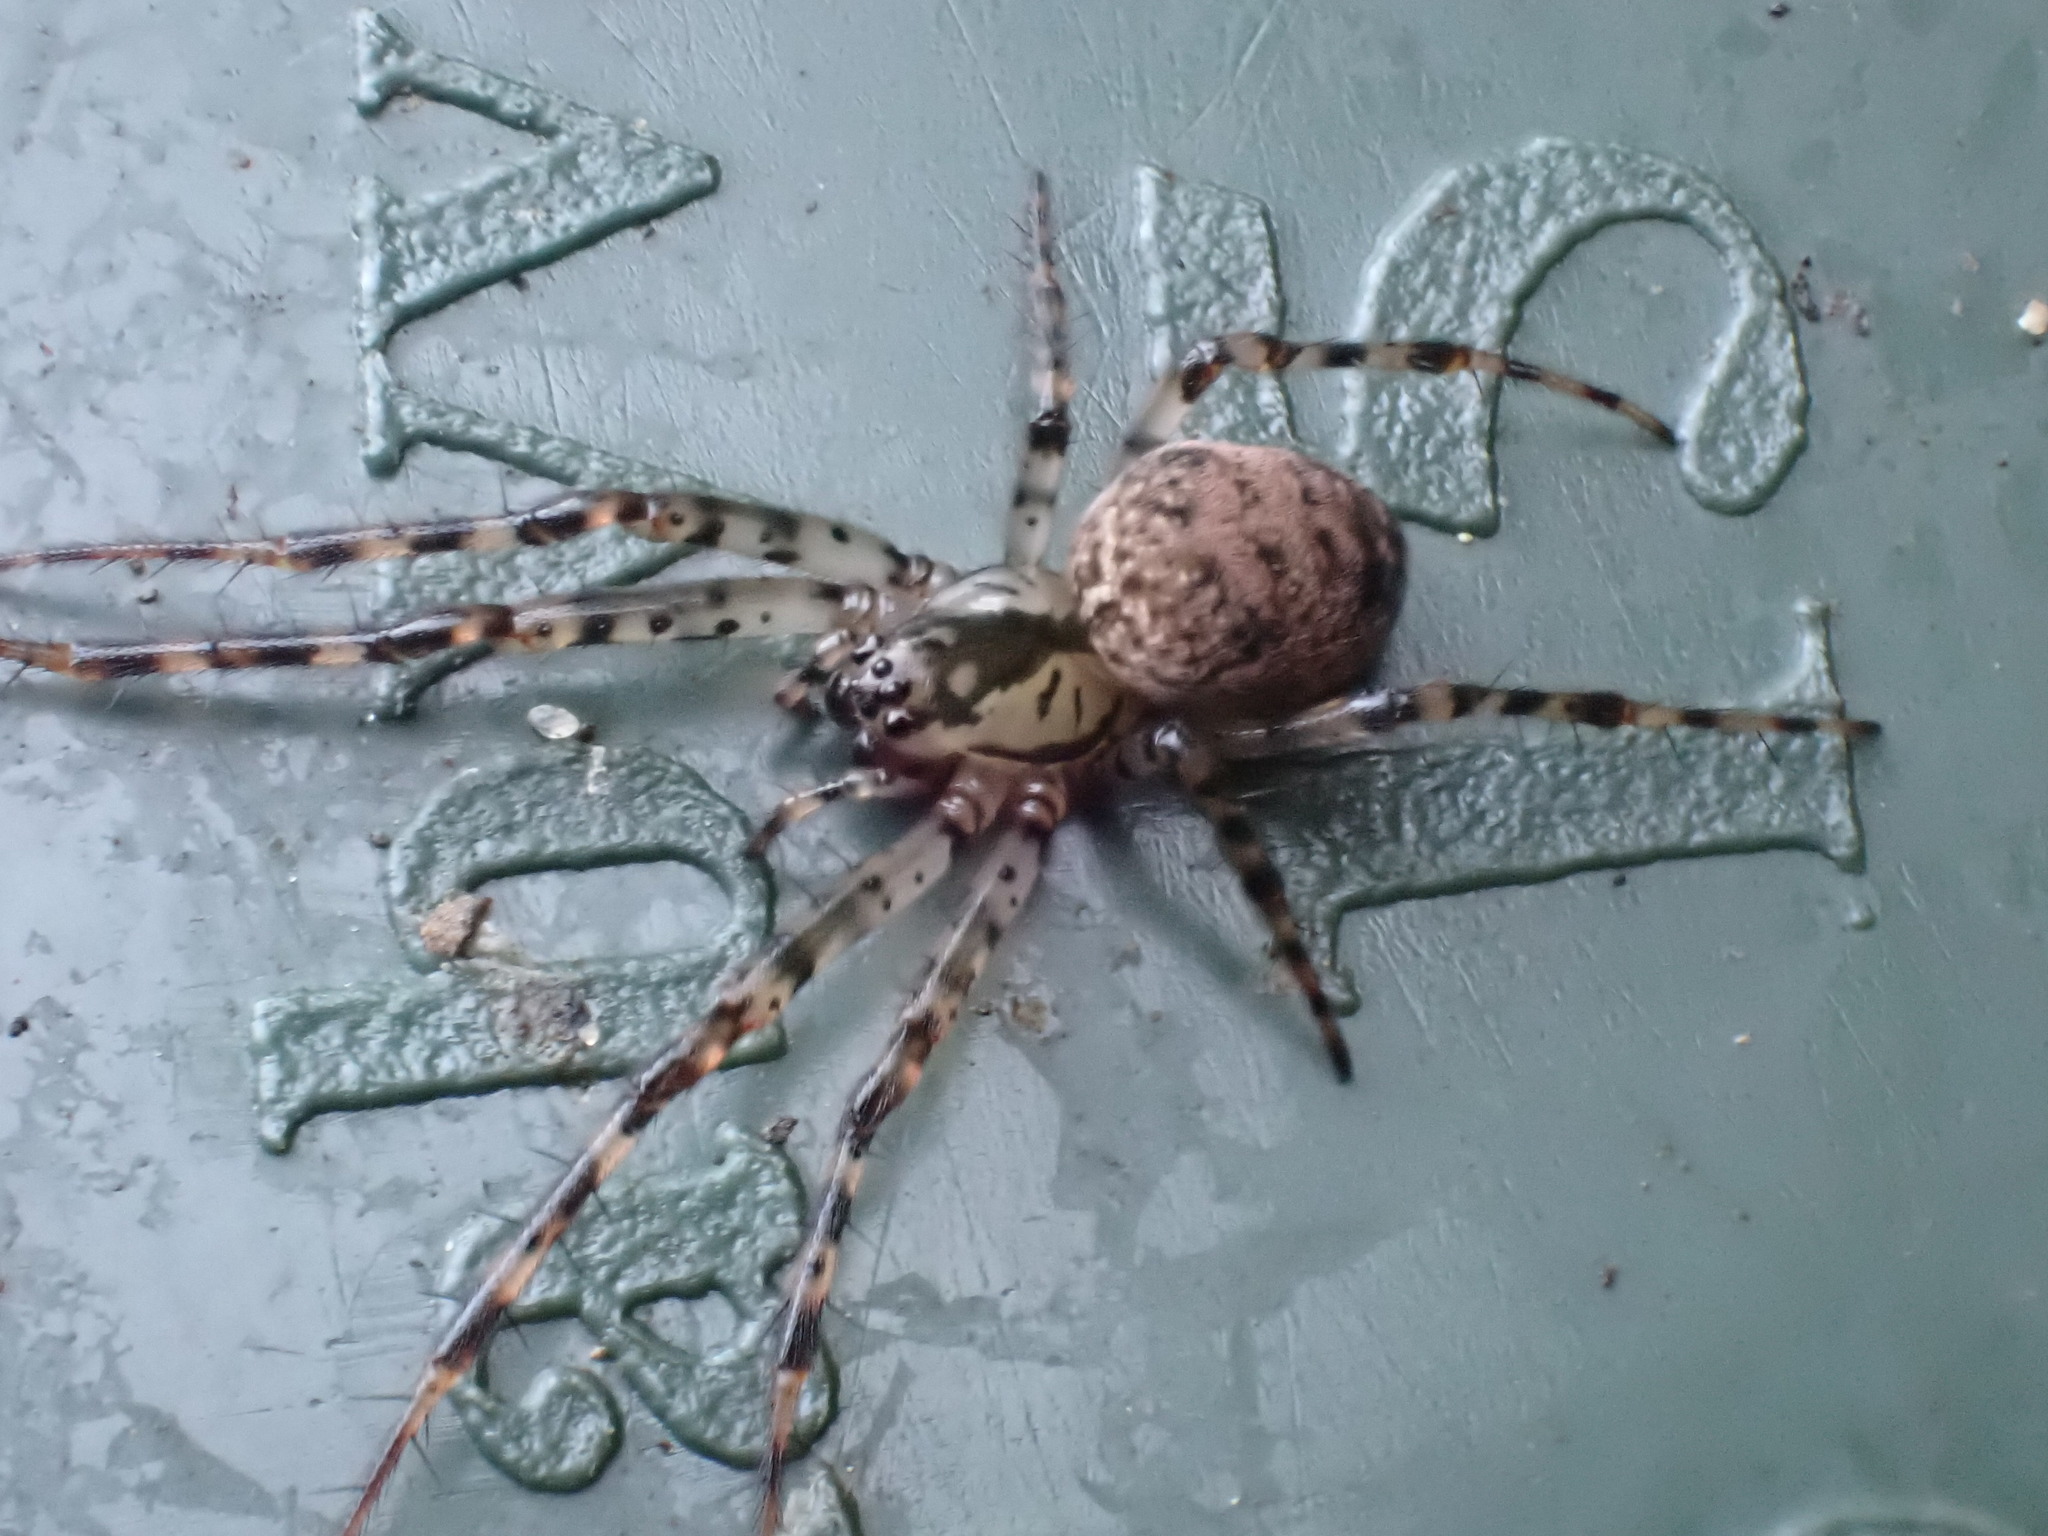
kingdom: Animalia
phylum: Arthropoda
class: Arachnida
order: Araneae
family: Tetragnathidae
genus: Metellina
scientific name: Metellina merianae
